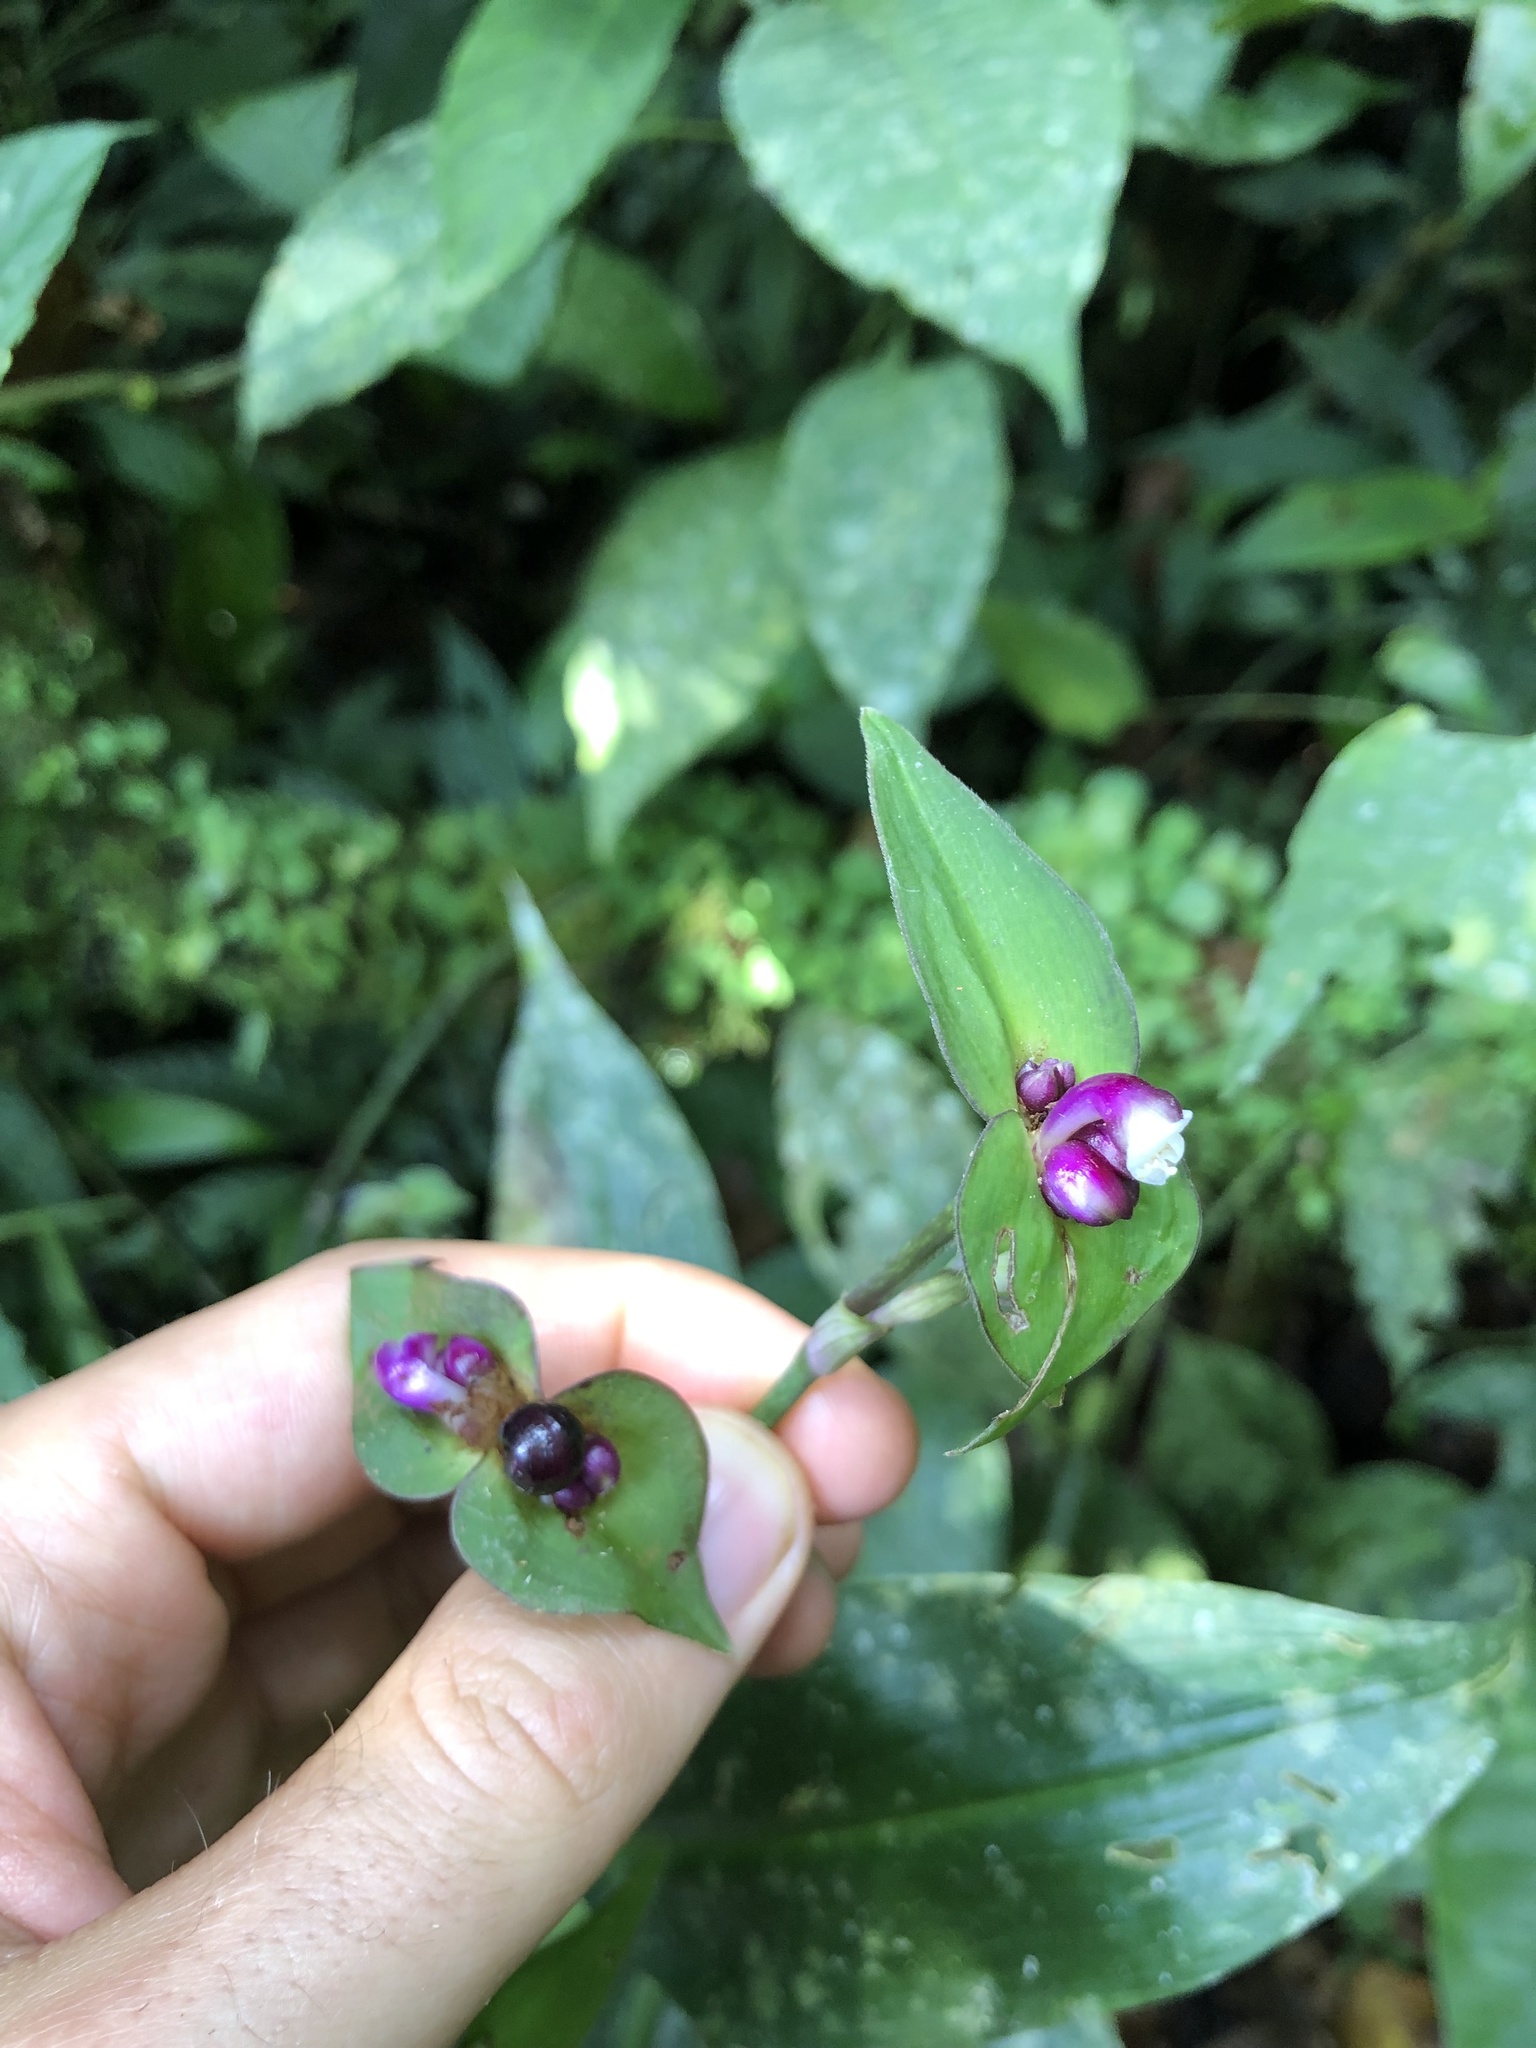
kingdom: Plantae
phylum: Tracheophyta
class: Liliopsida
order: Commelinales
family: Commelinaceae
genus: Tradescantia
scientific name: Tradescantia zanonia
